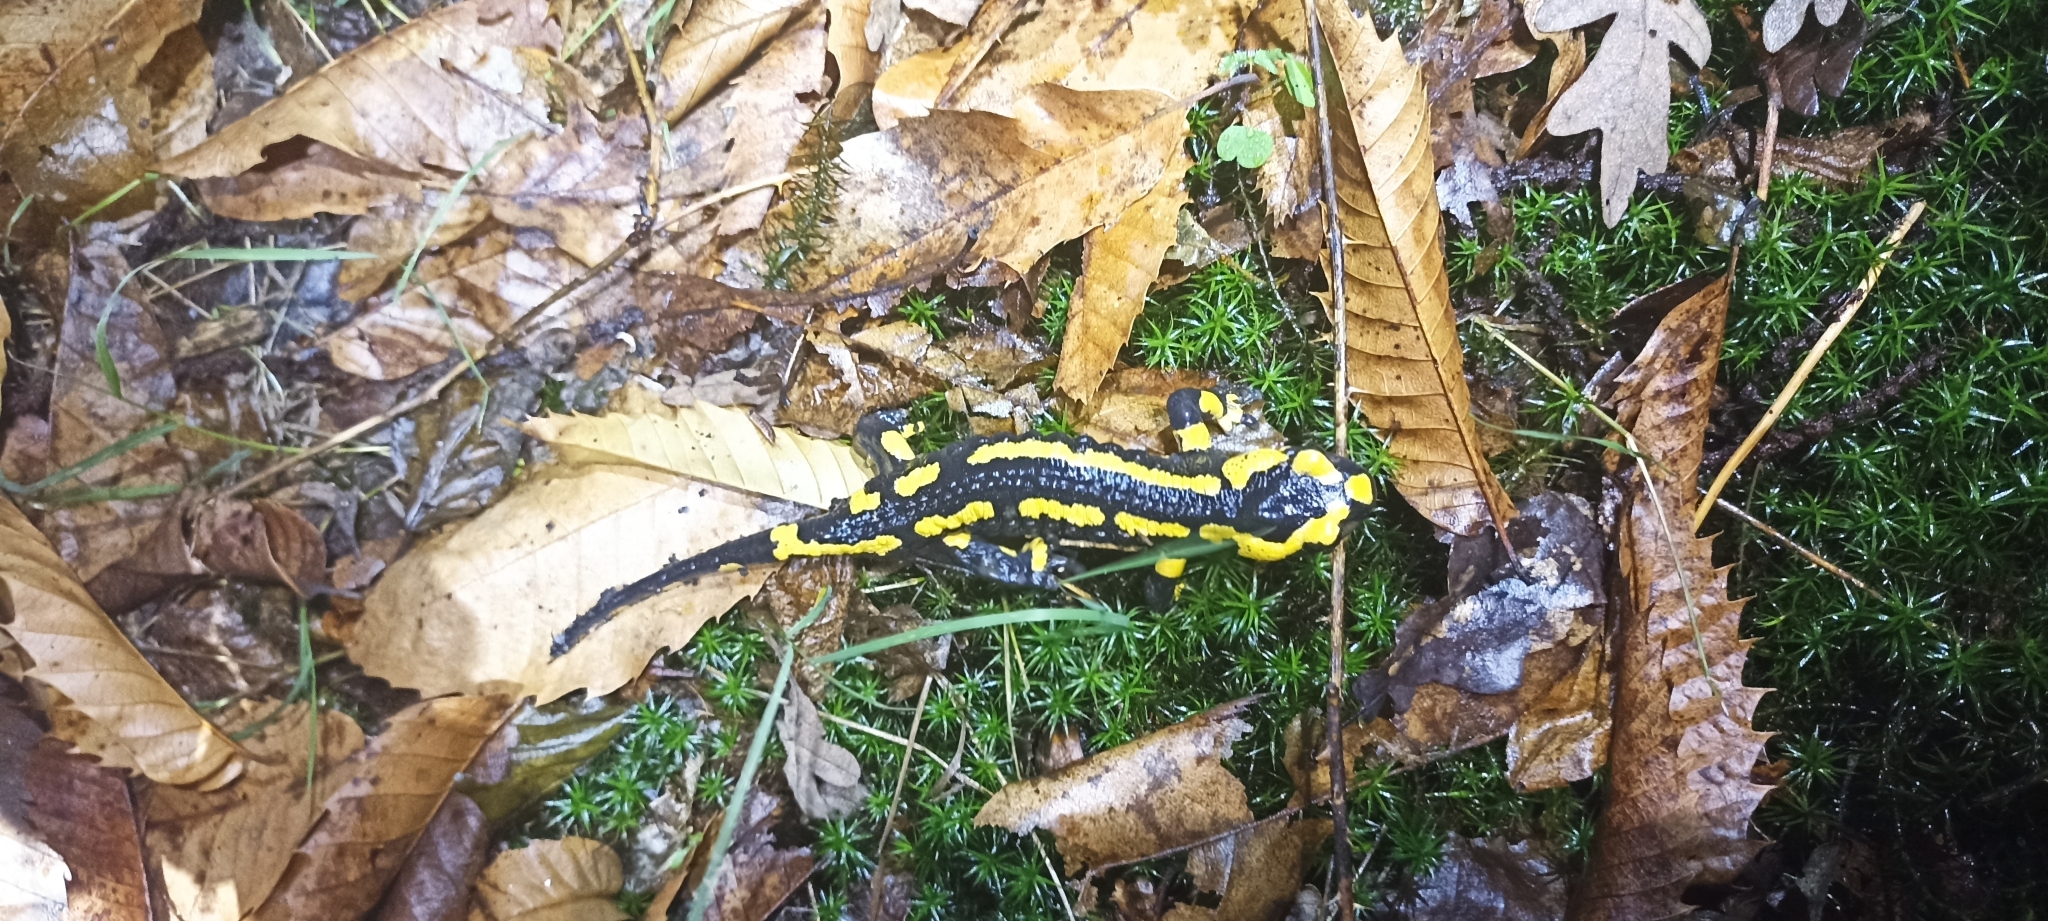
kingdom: Animalia
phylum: Chordata
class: Amphibia
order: Caudata
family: Salamandridae
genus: Salamandra
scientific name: Salamandra salamandra
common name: Fire salamander
